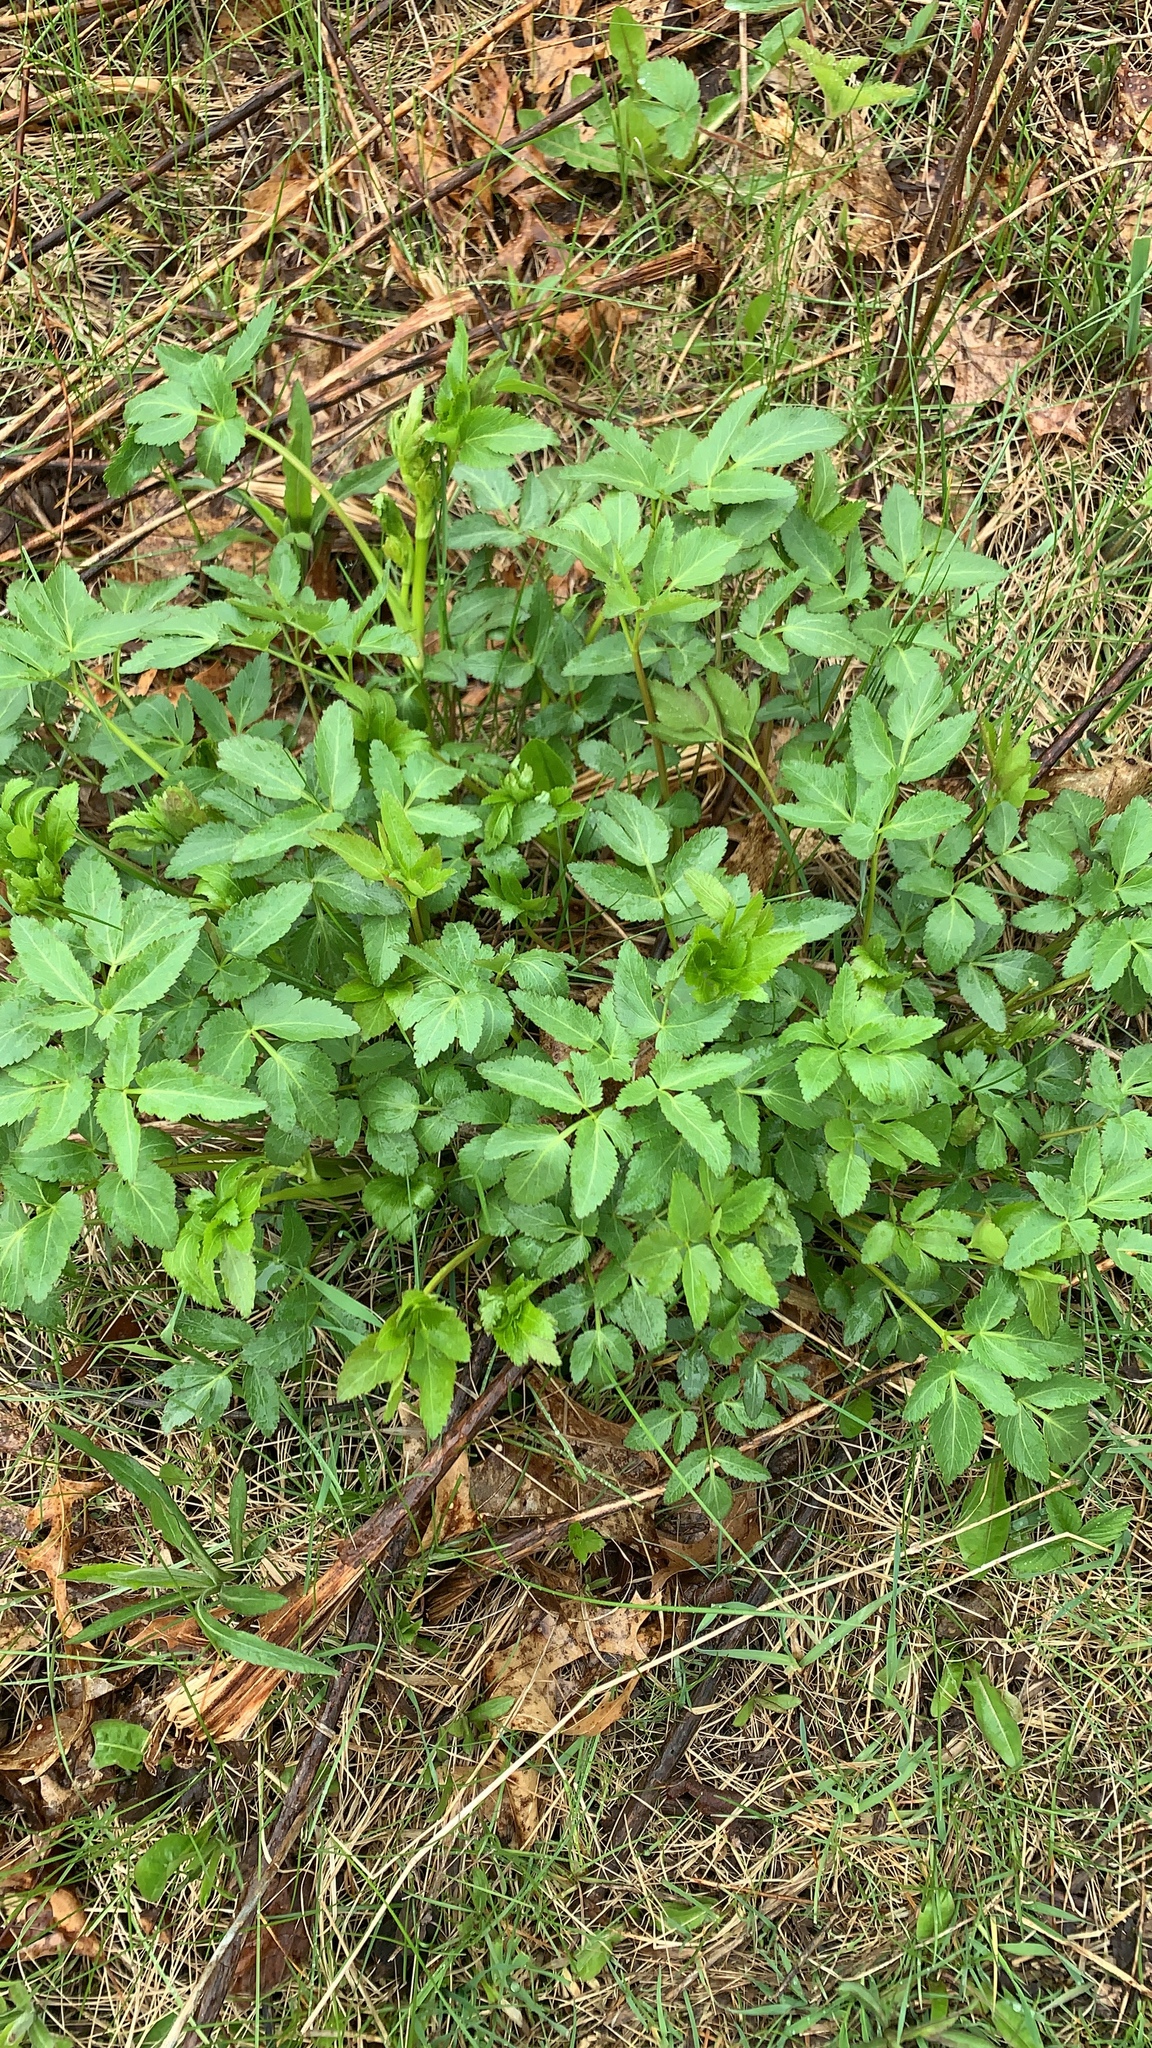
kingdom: Plantae
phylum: Tracheophyta
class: Magnoliopsida
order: Apiales
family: Apiaceae
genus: Zizia
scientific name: Zizia aurea
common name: Golden alexanders
